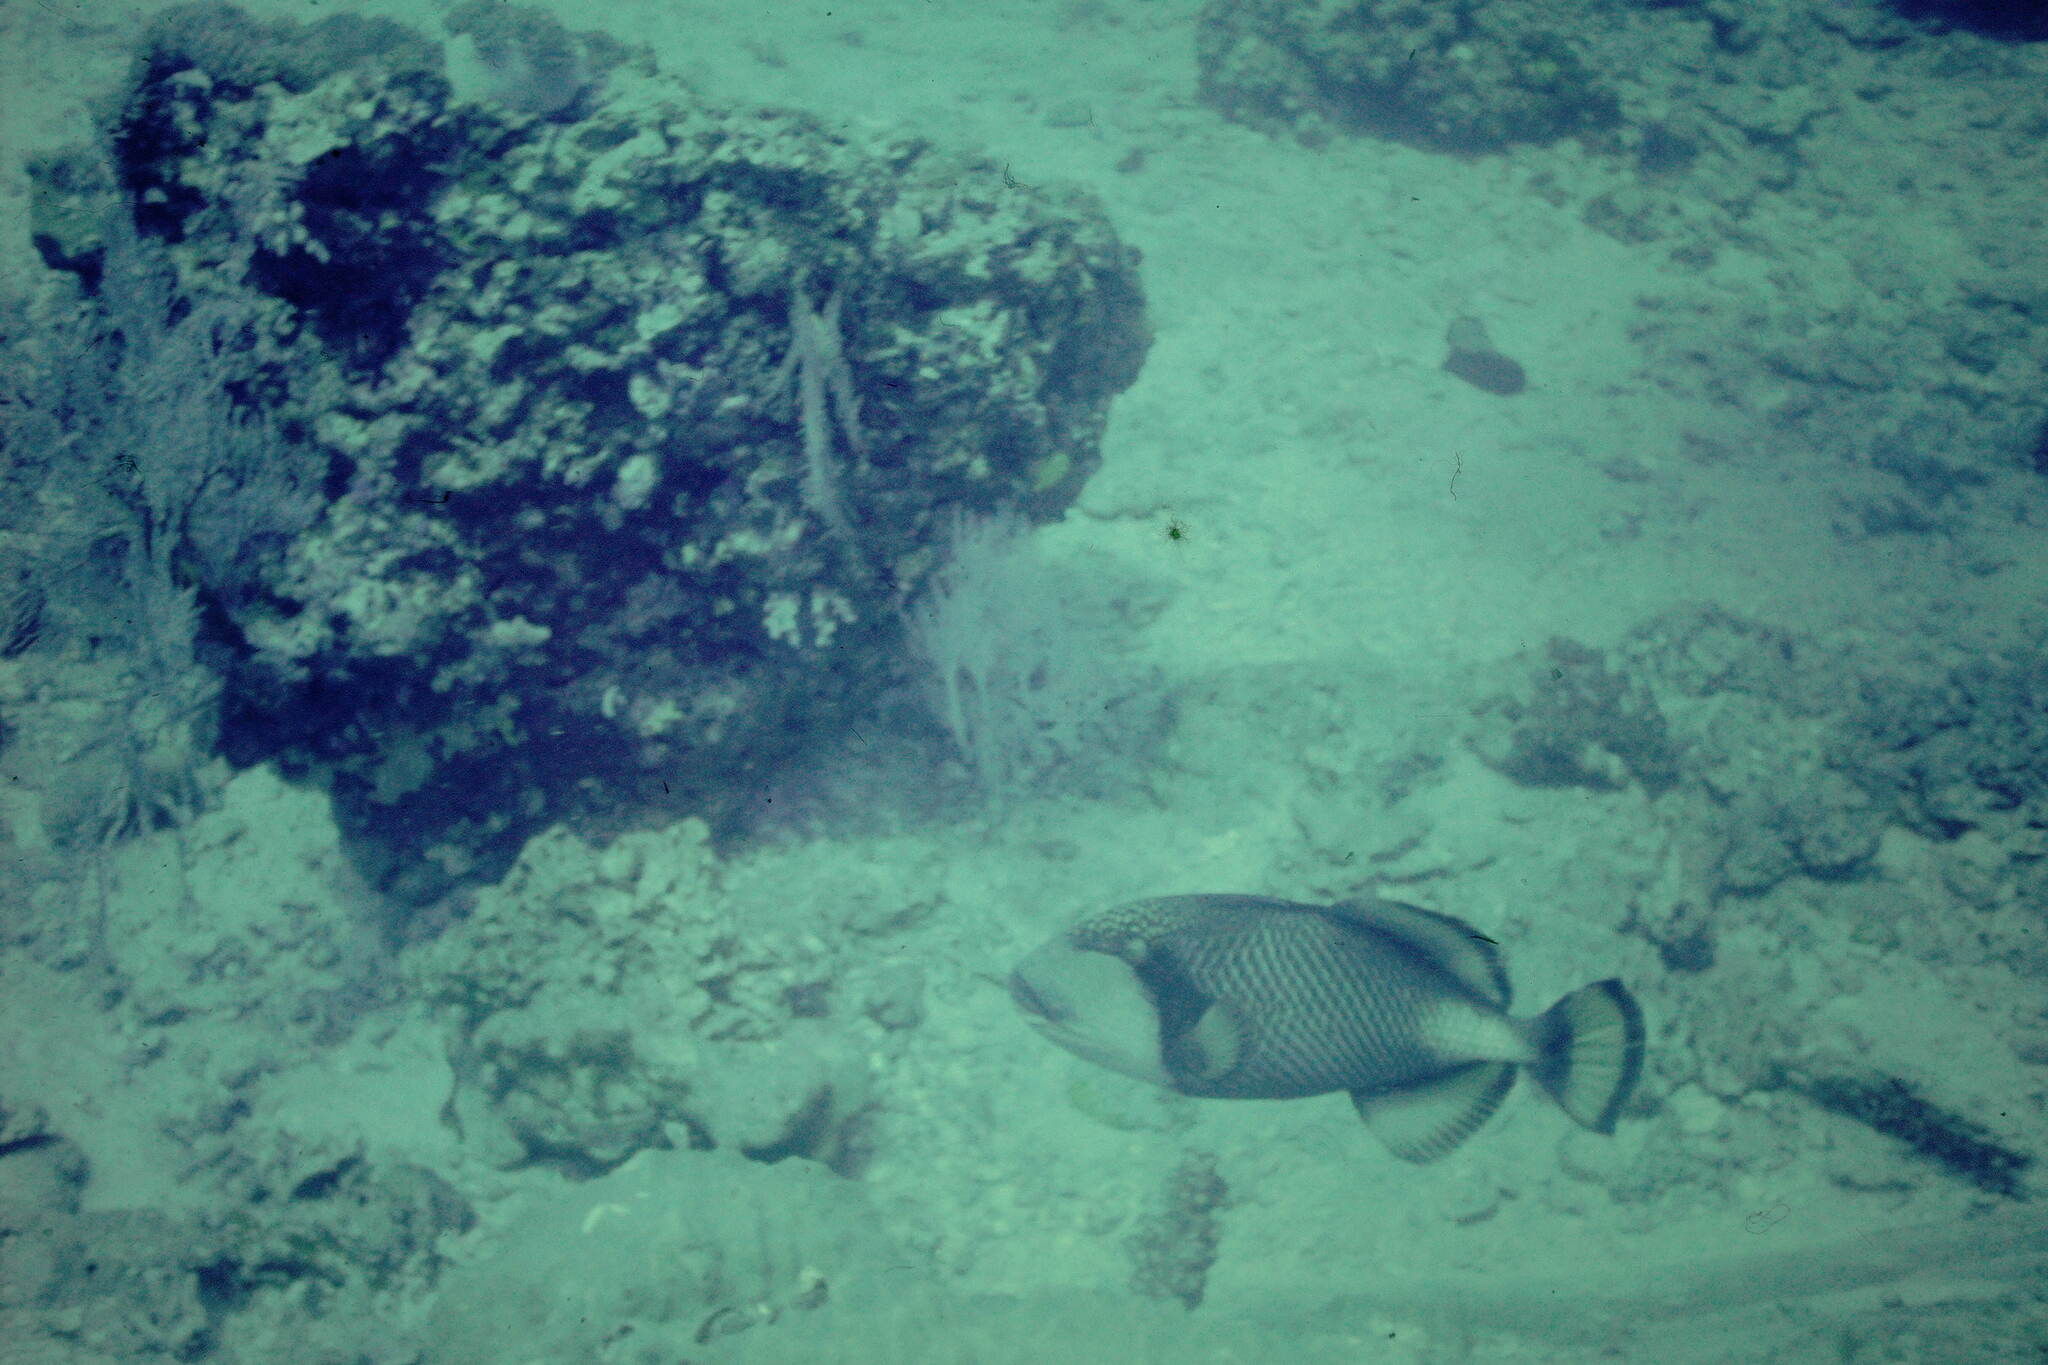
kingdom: Animalia
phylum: Chordata
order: Tetraodontiformes
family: Balistidae
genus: Balistoides
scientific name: Balistoides viridescens
